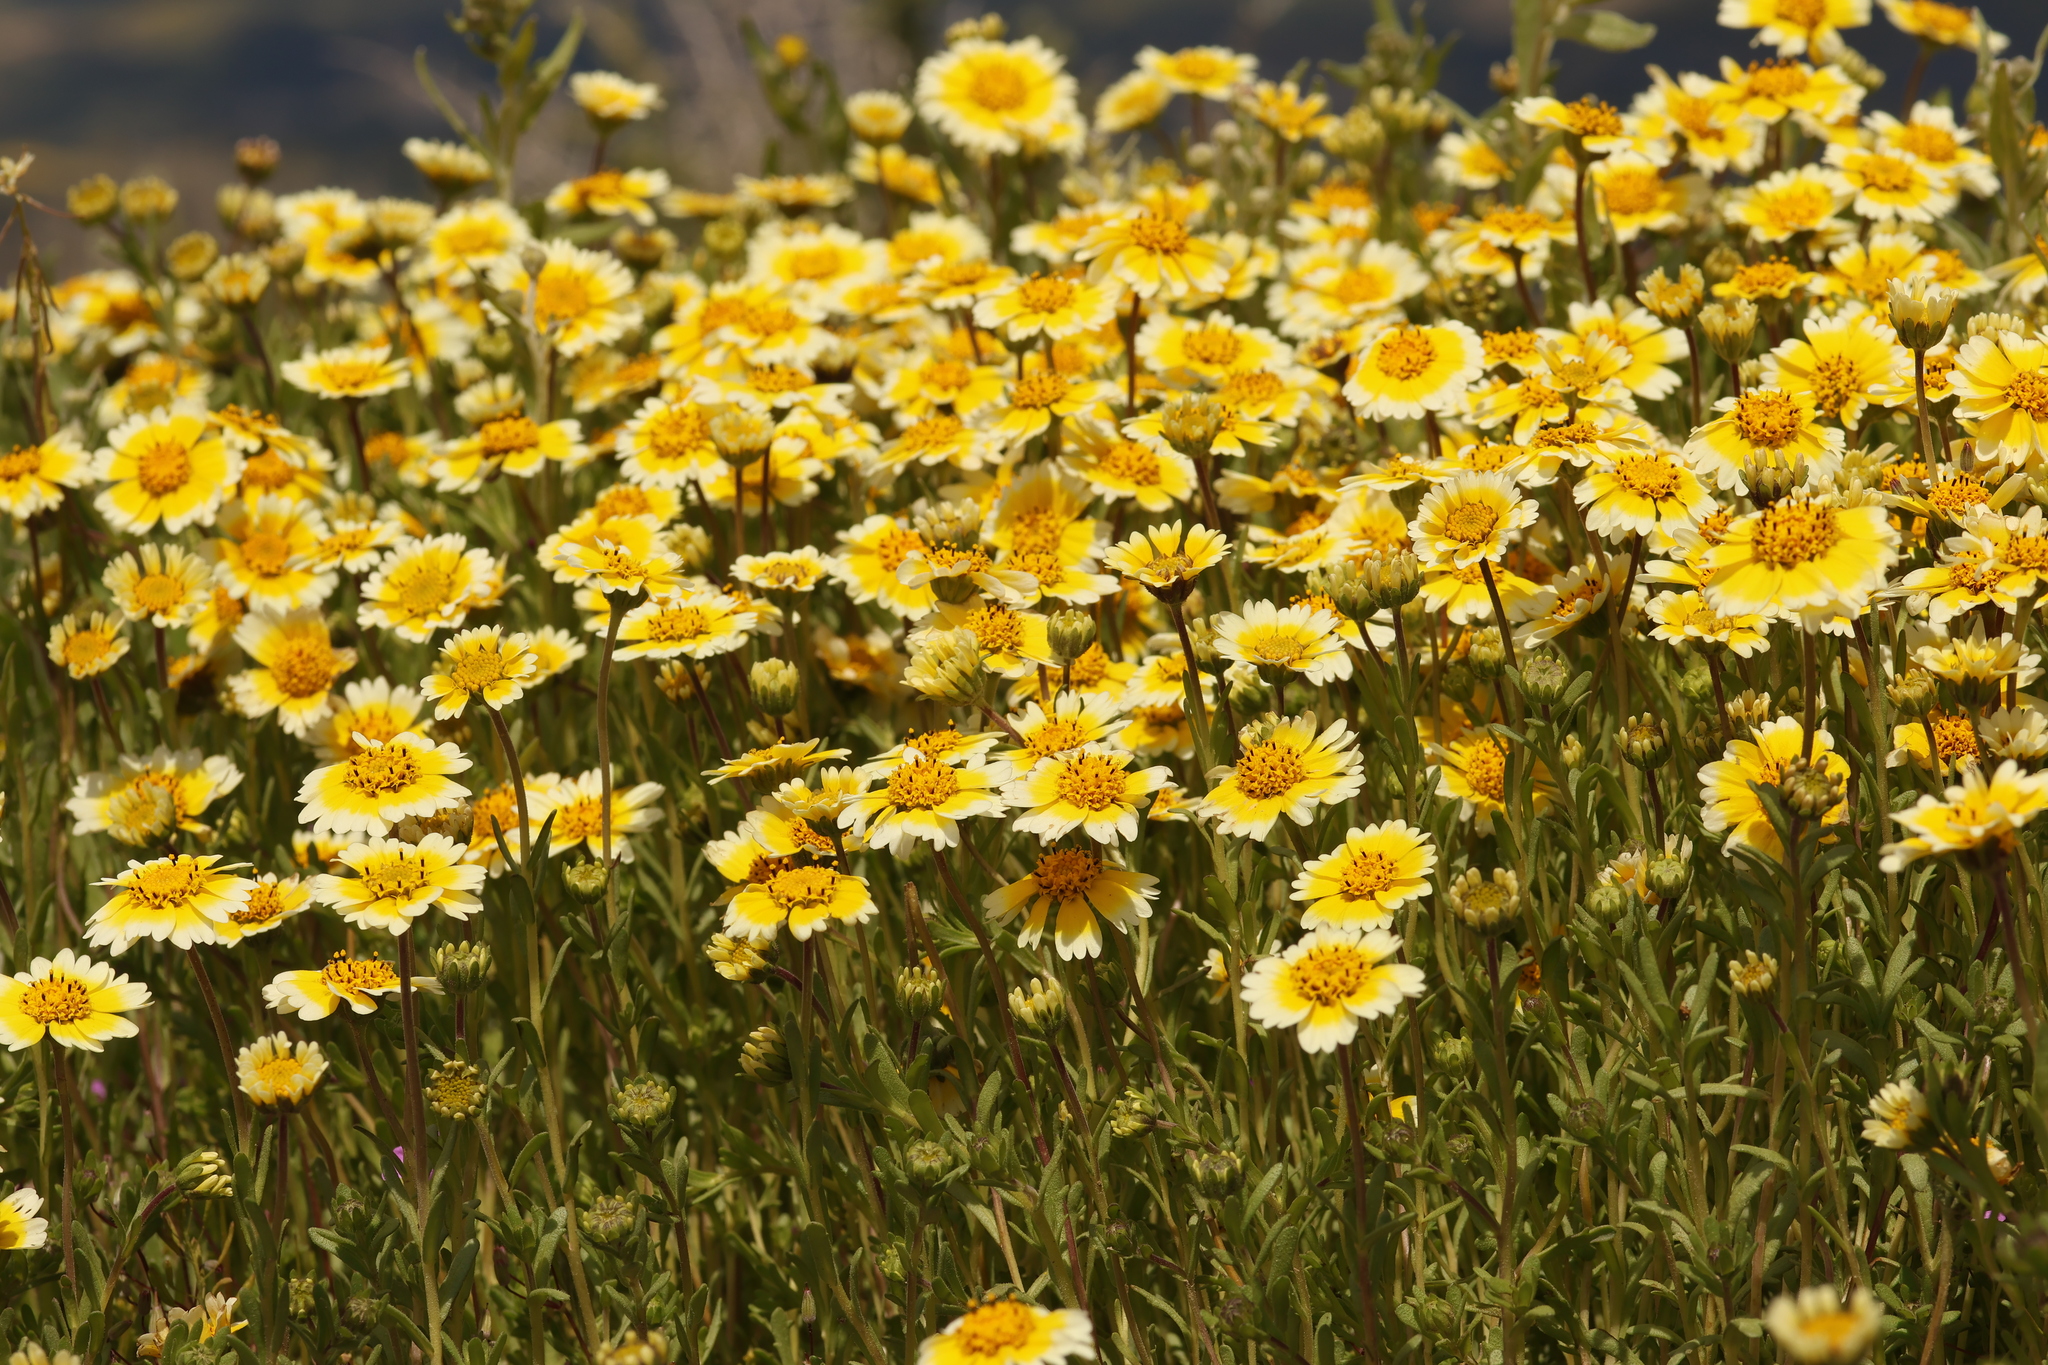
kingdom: Plantae
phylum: Tracheophyta
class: Magnoliopsida
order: Asterales
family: Asteraceae
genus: Layia
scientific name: Layia munzii
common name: Munz's tidy-tips
